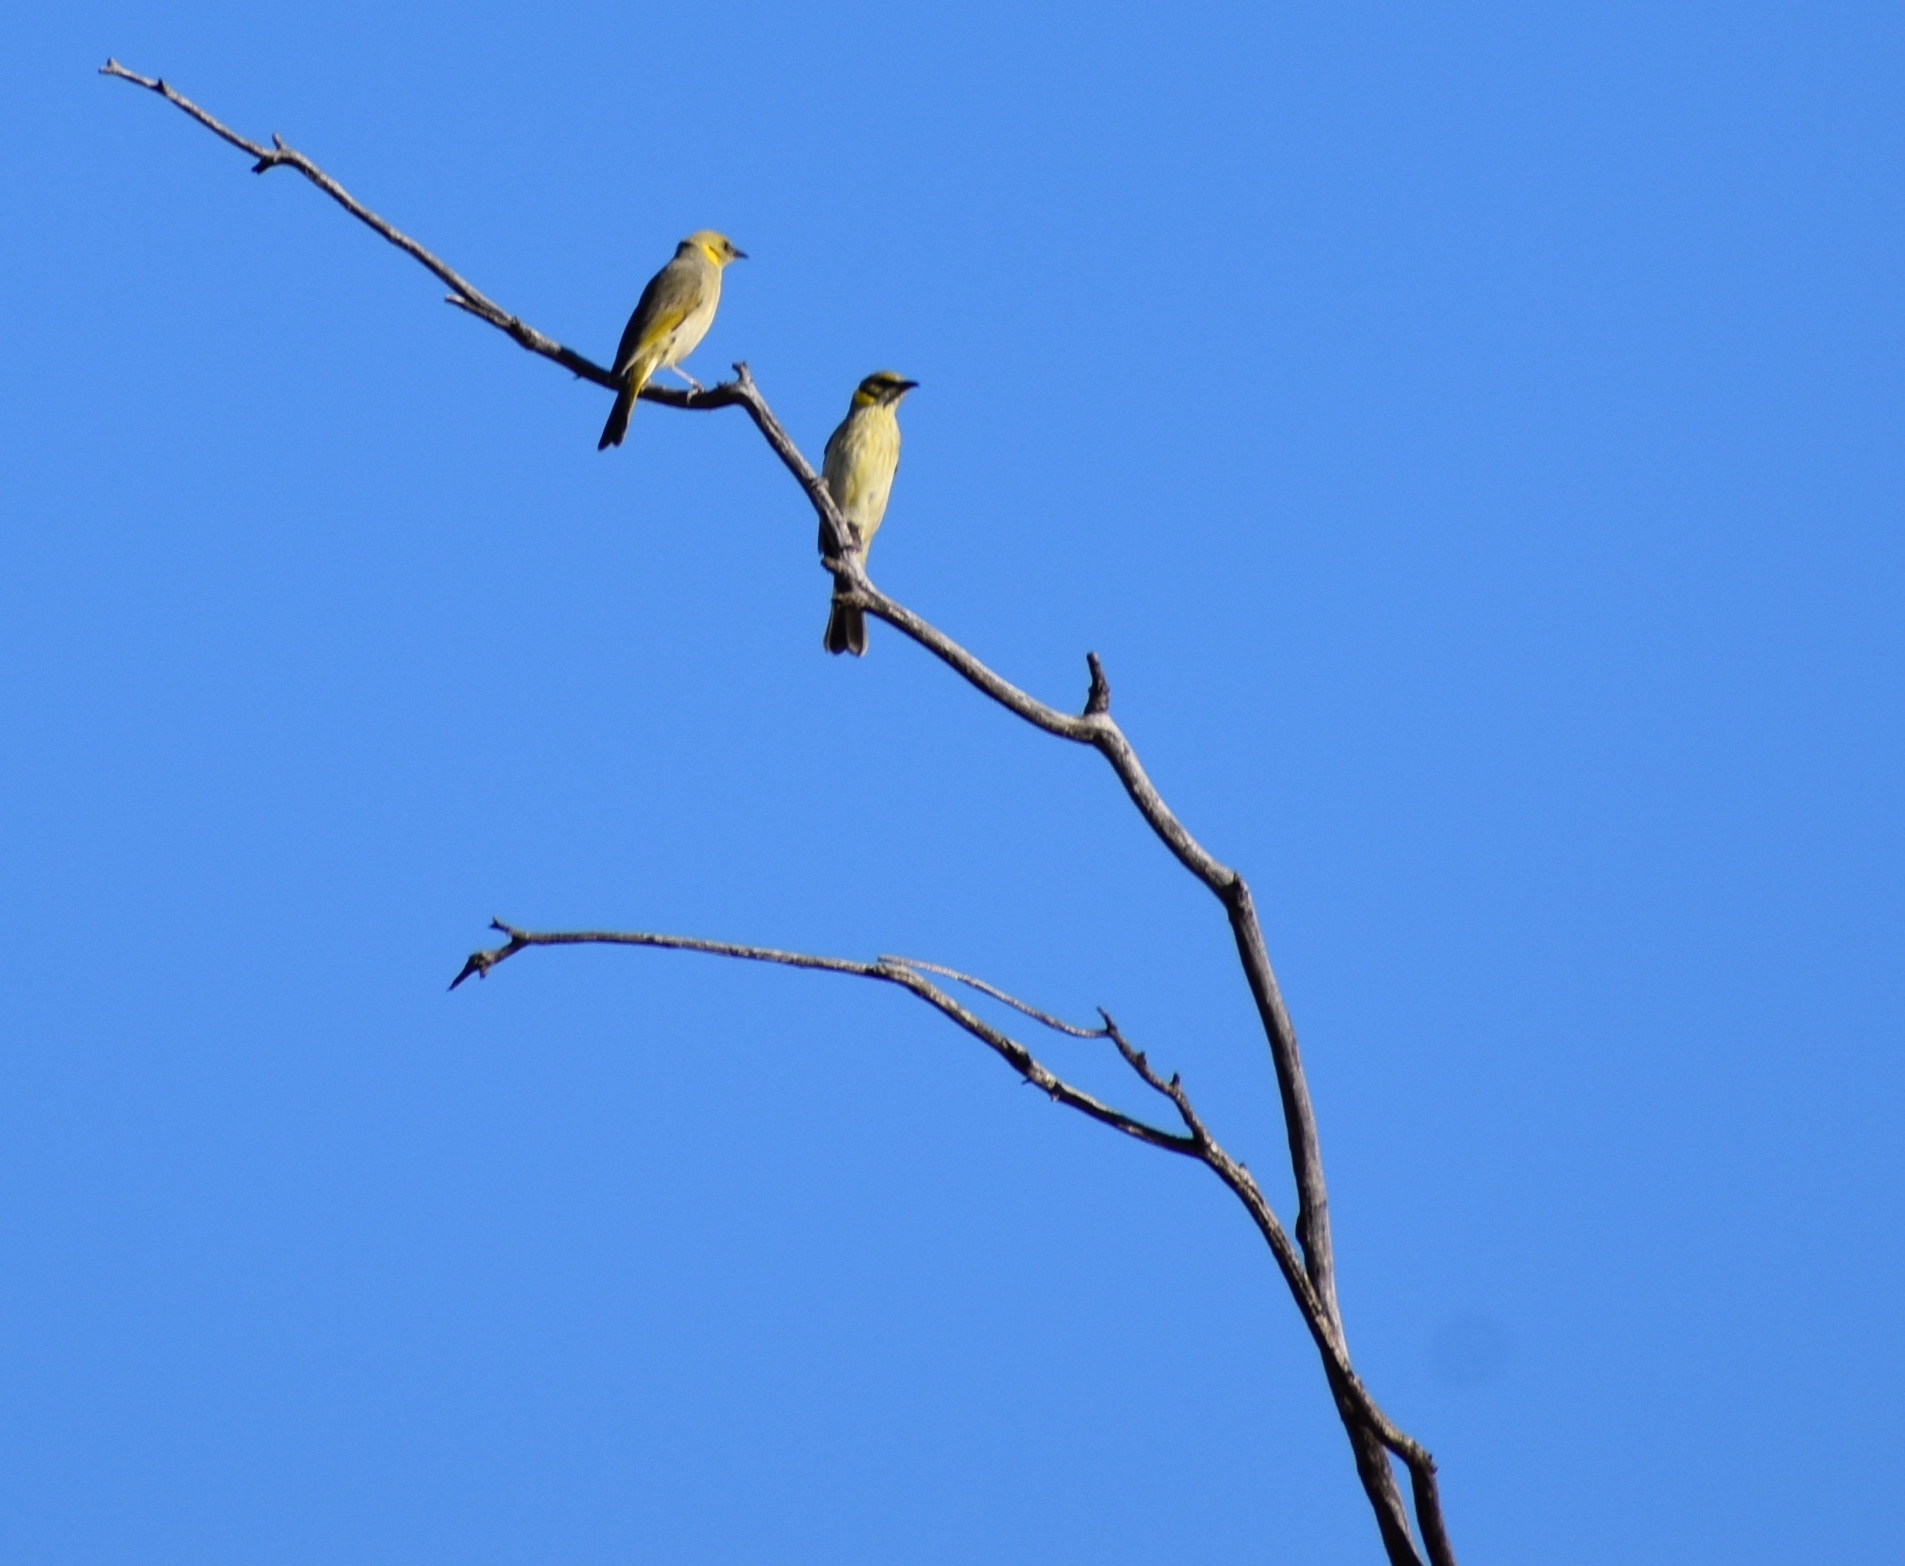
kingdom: Animalia
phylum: Chordata
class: Aves
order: Passeriformes
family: Meliphagidae
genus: Ptilotula
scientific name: Ptilotula plumula
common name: Grey-fronted honeyeater
